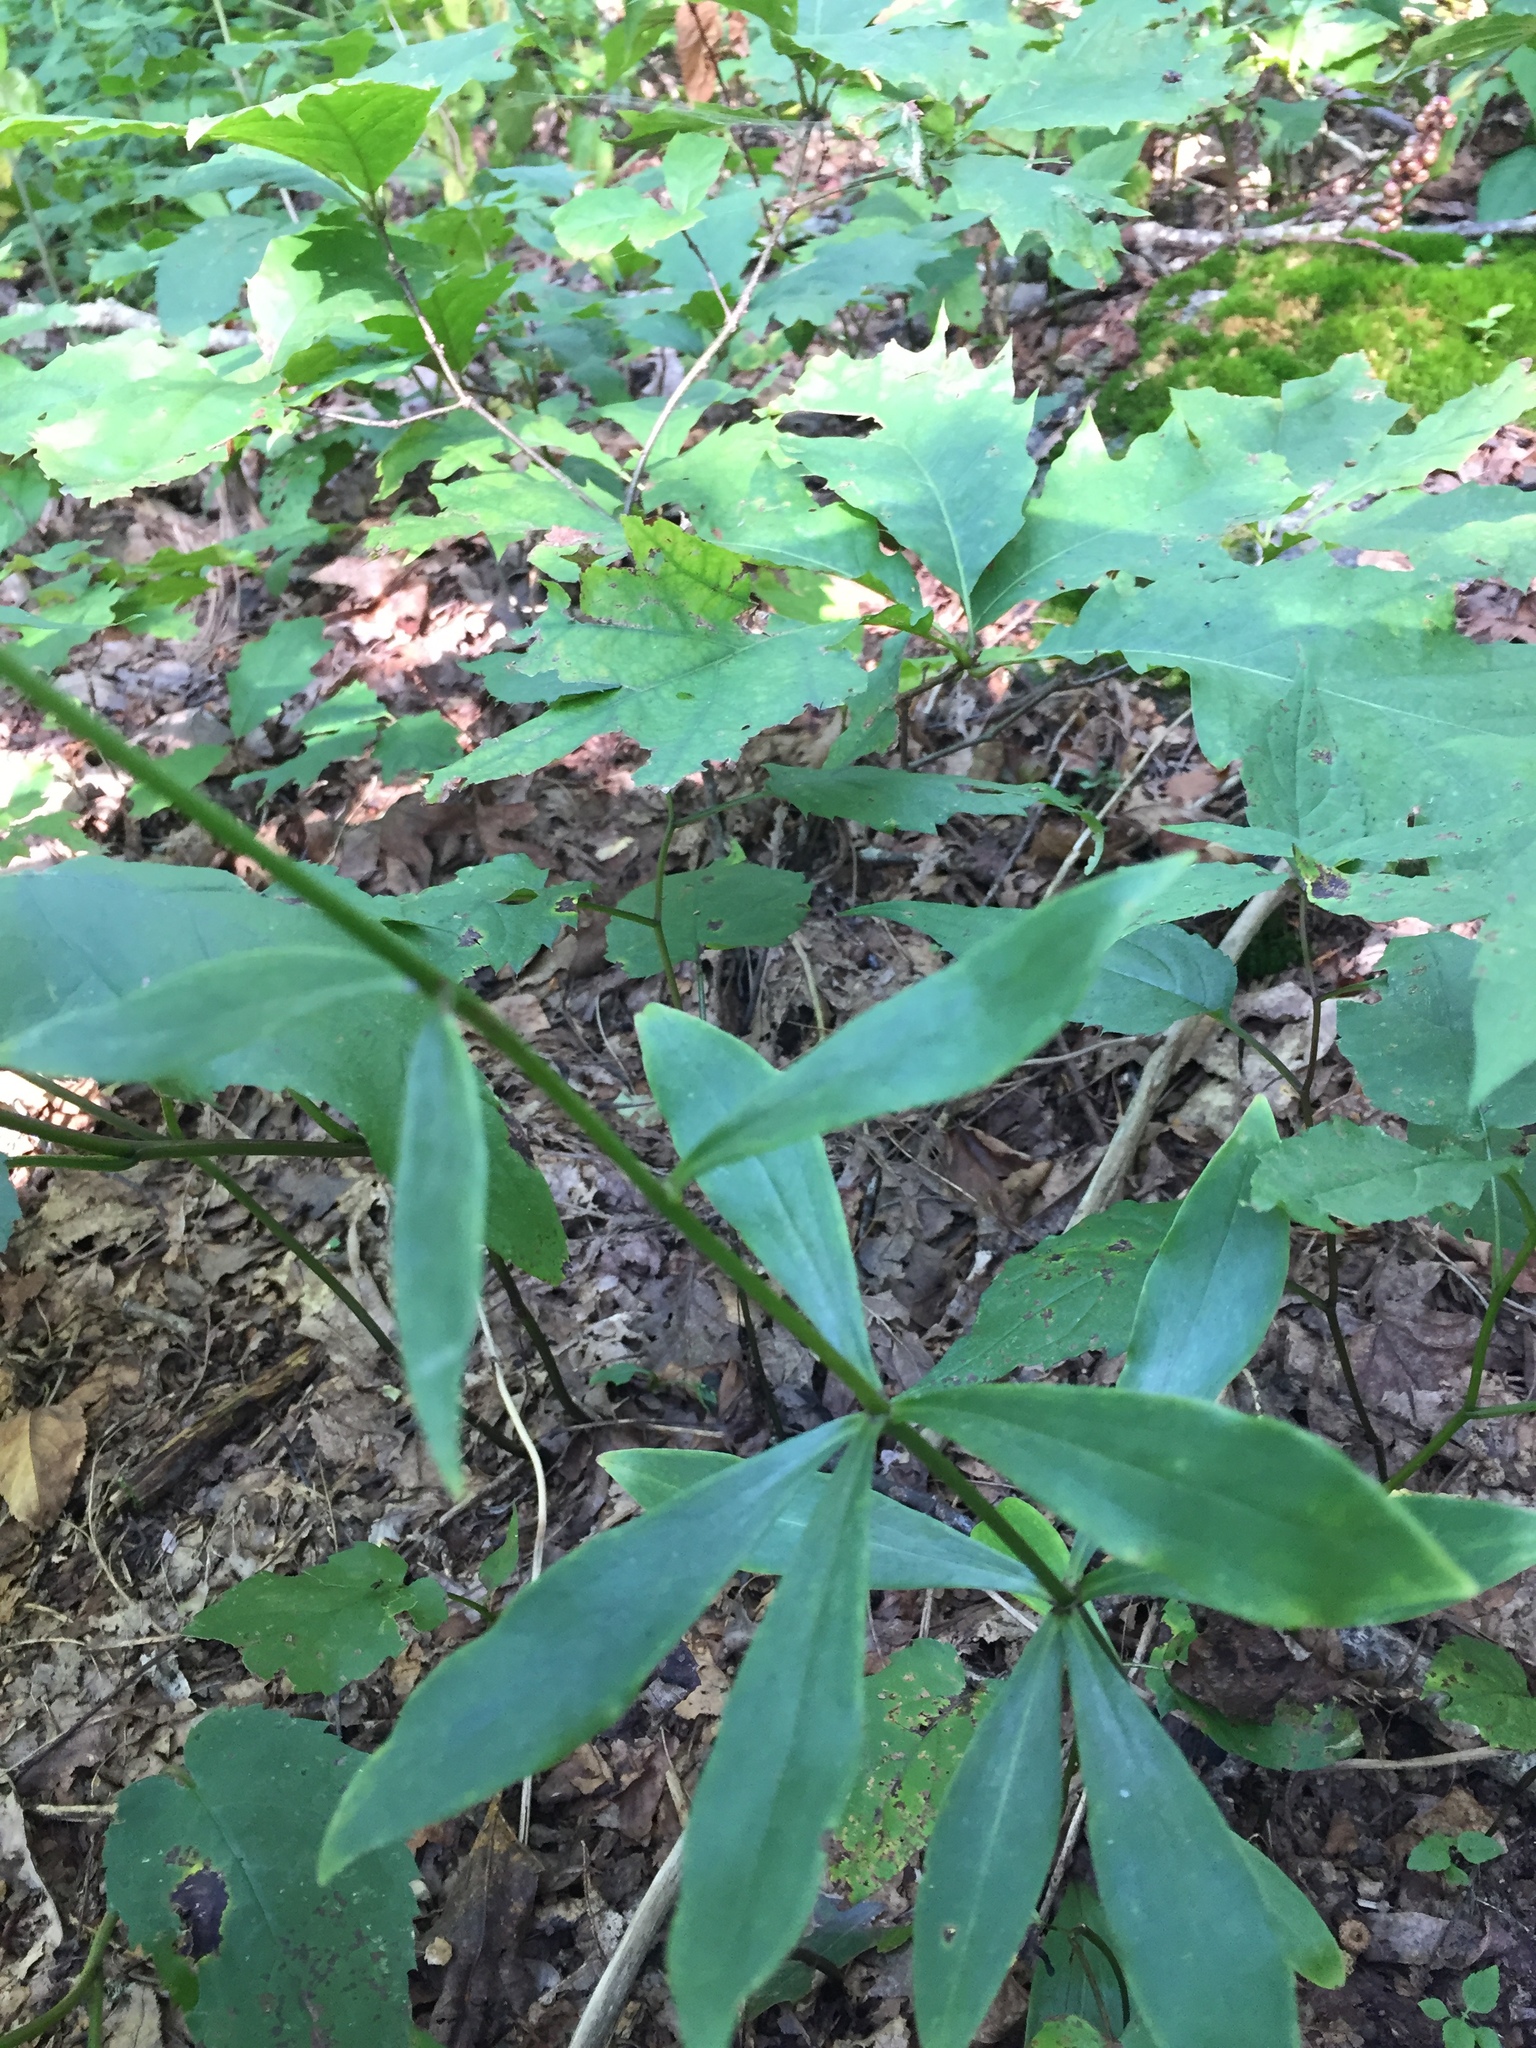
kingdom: Plantae
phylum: Tracheophyta
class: Liliopsida
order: Liliales
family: Liliaceae
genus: Lilium
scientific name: Lilium michauxii
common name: Carolina lily
